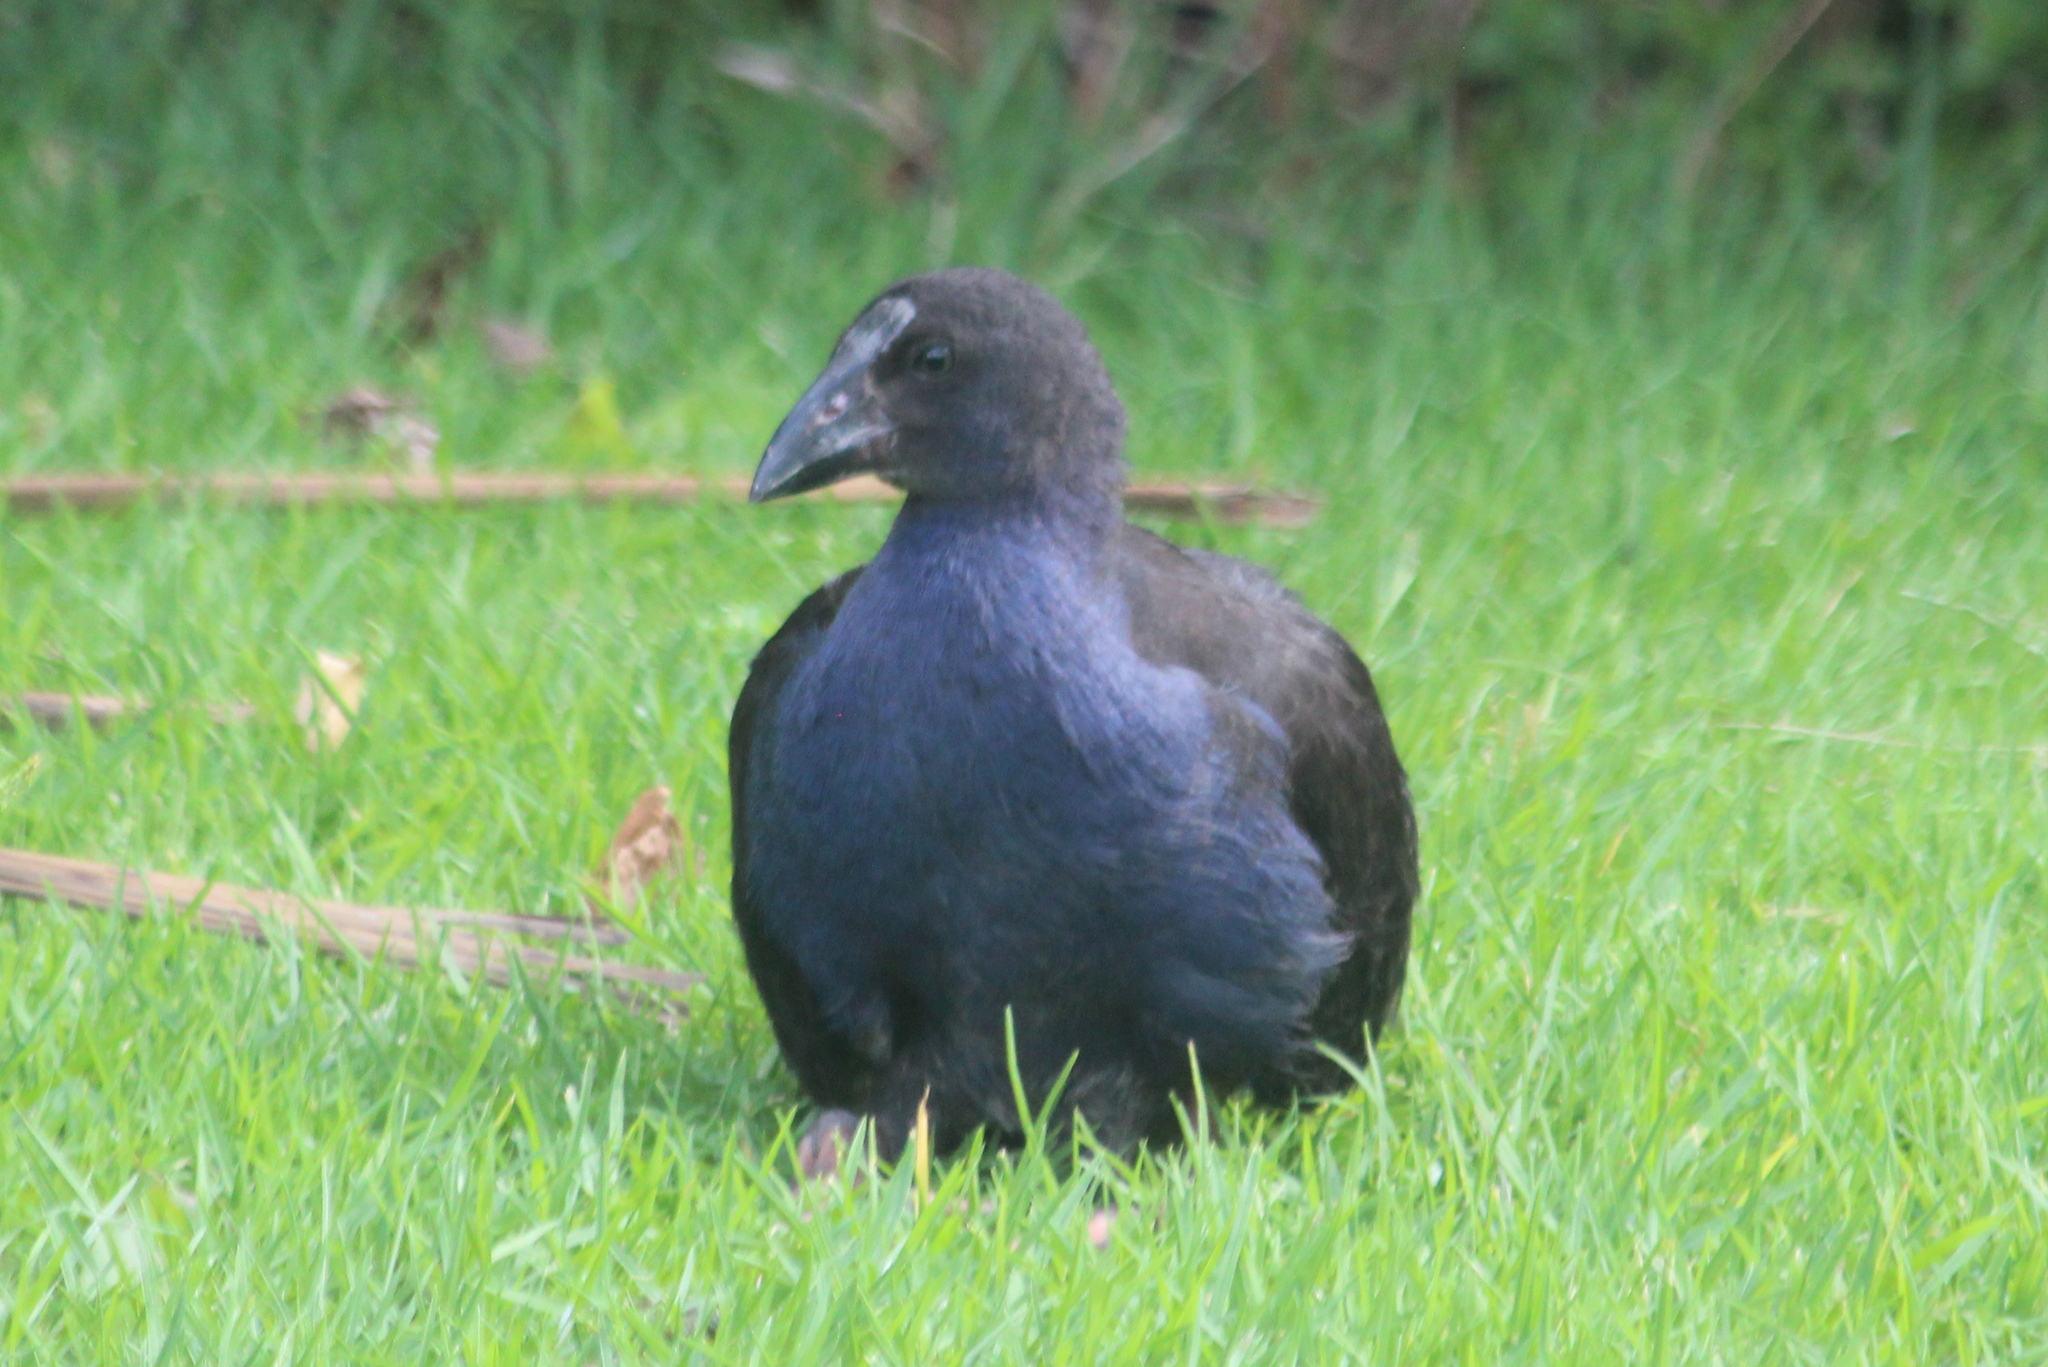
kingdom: Animalia
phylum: Chordata
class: Aves
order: Gruiformes
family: Rallidae
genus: Porphyrio
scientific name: Porphyrio melanotus
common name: Australasian swamphen
